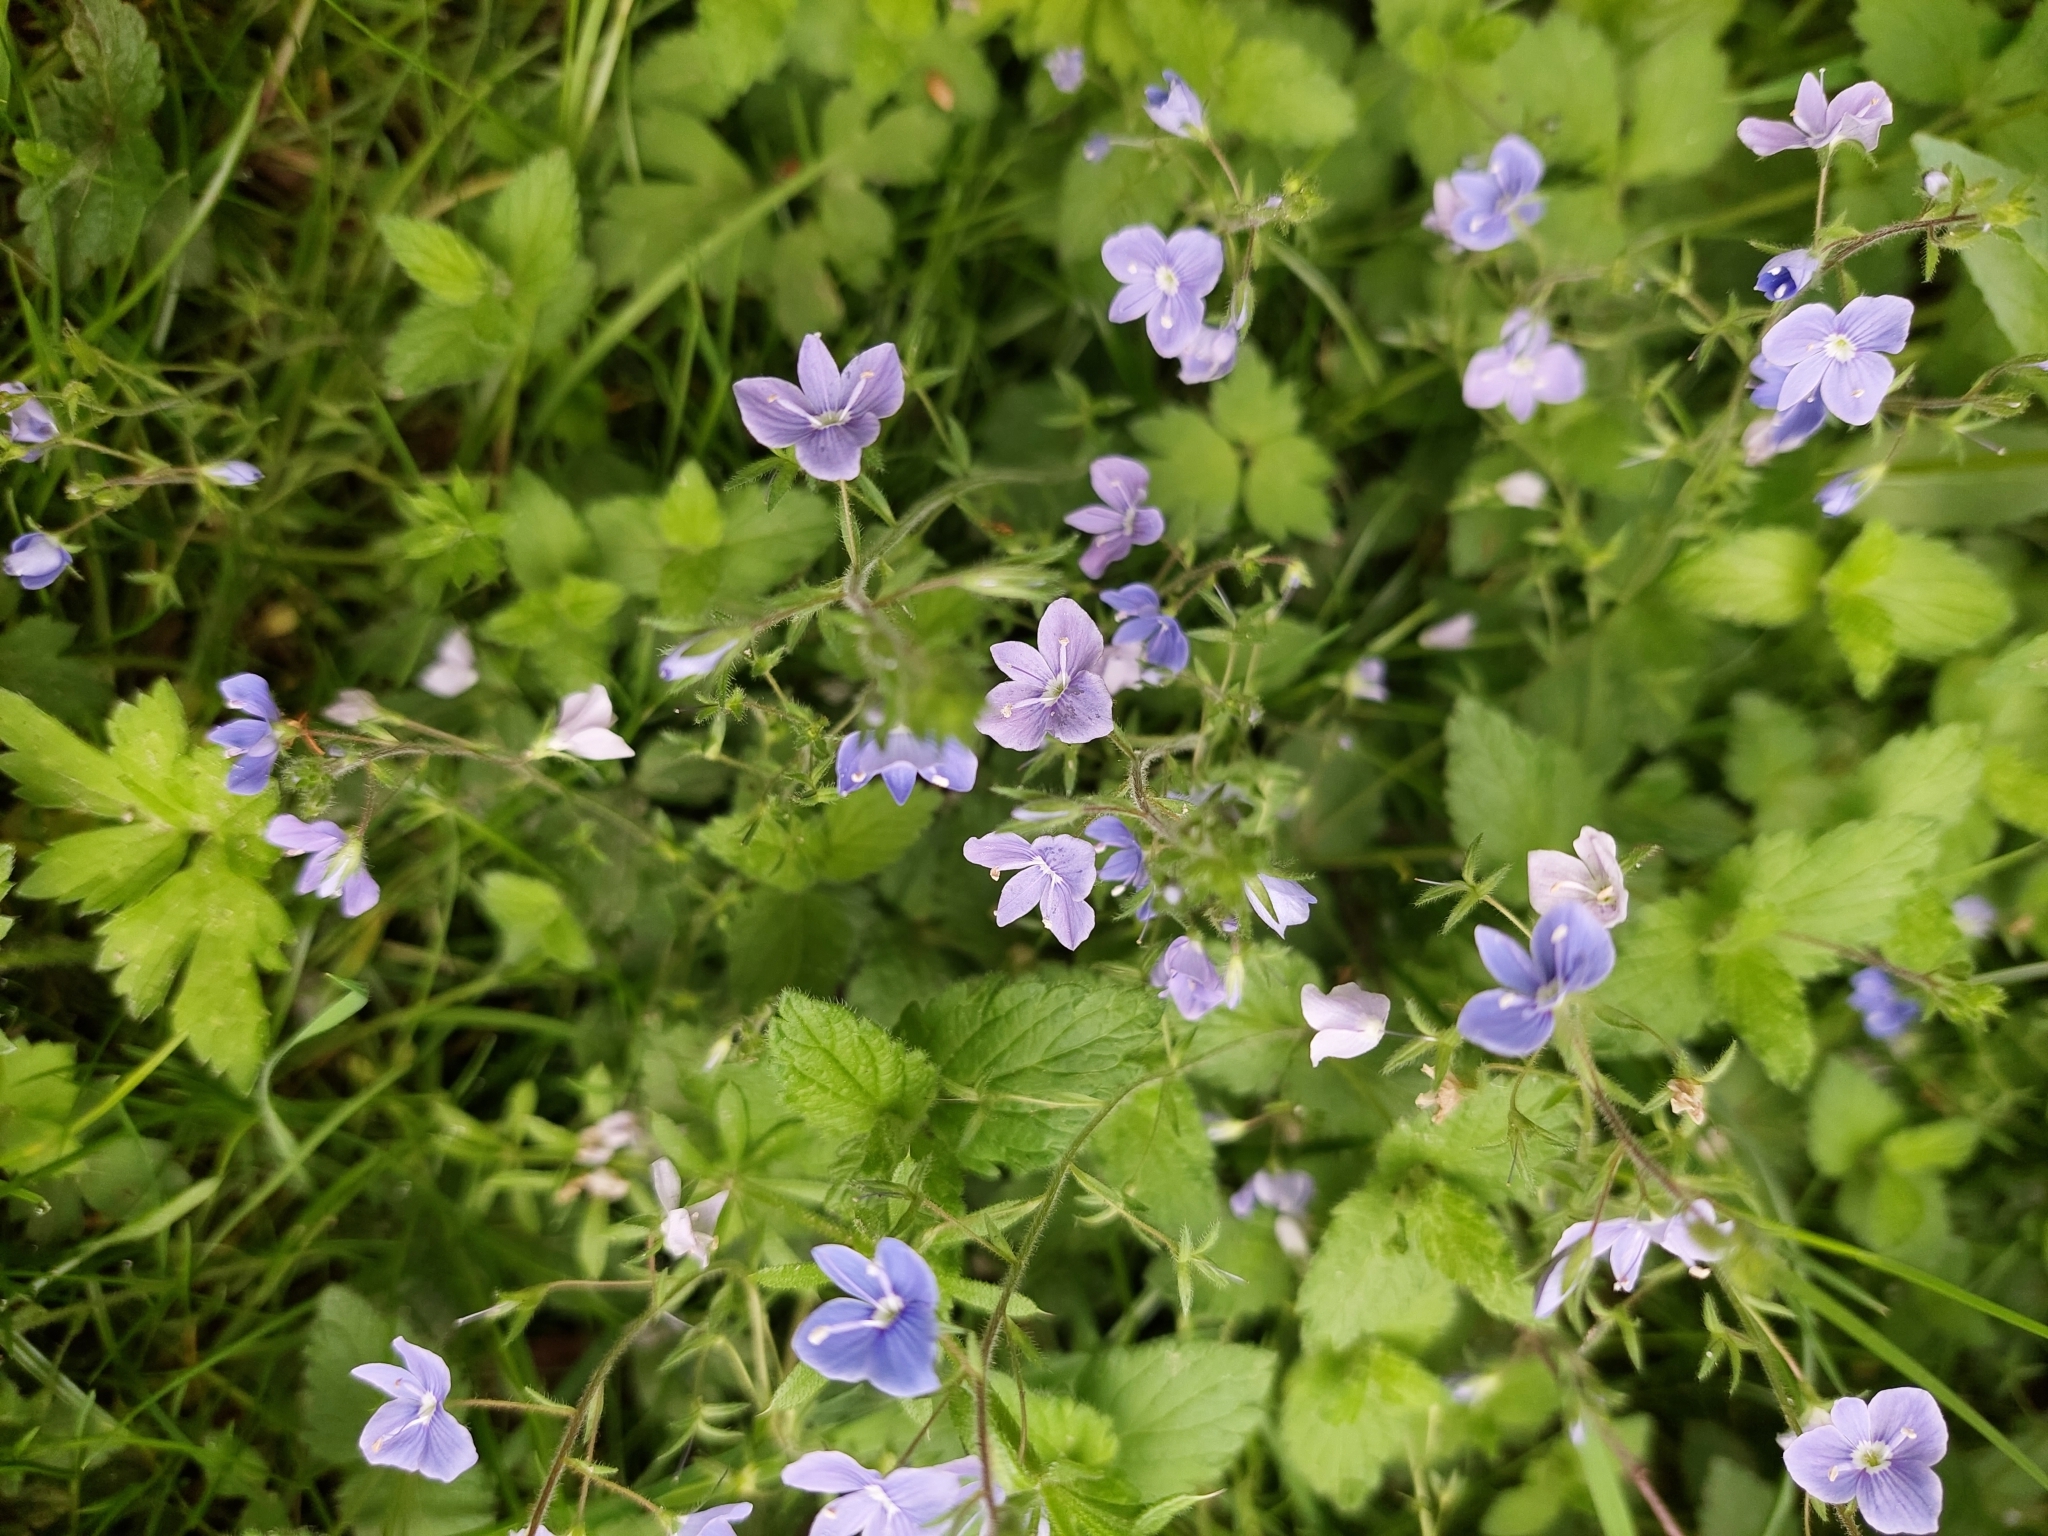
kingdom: Plantae
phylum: Tracheophyta
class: Magnoliopsida
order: Lamiales
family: Plantaginaceae
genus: Veronica
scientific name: Veronica chamaedrys
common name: Germander speedwell
